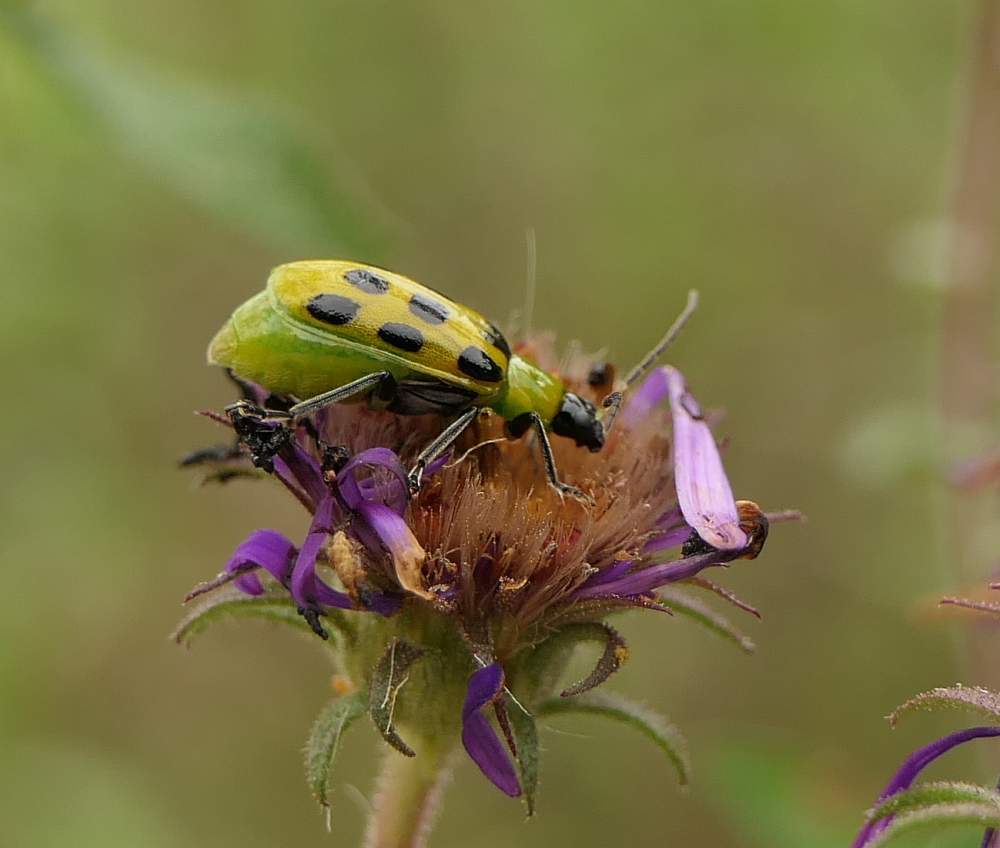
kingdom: Animalia
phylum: Arthropoda
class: Insecta
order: Coleoptera
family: Chrysomelidae
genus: Diabrotica
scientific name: Diabrotica undecimpunctata
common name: Spotted cucumber beetle
